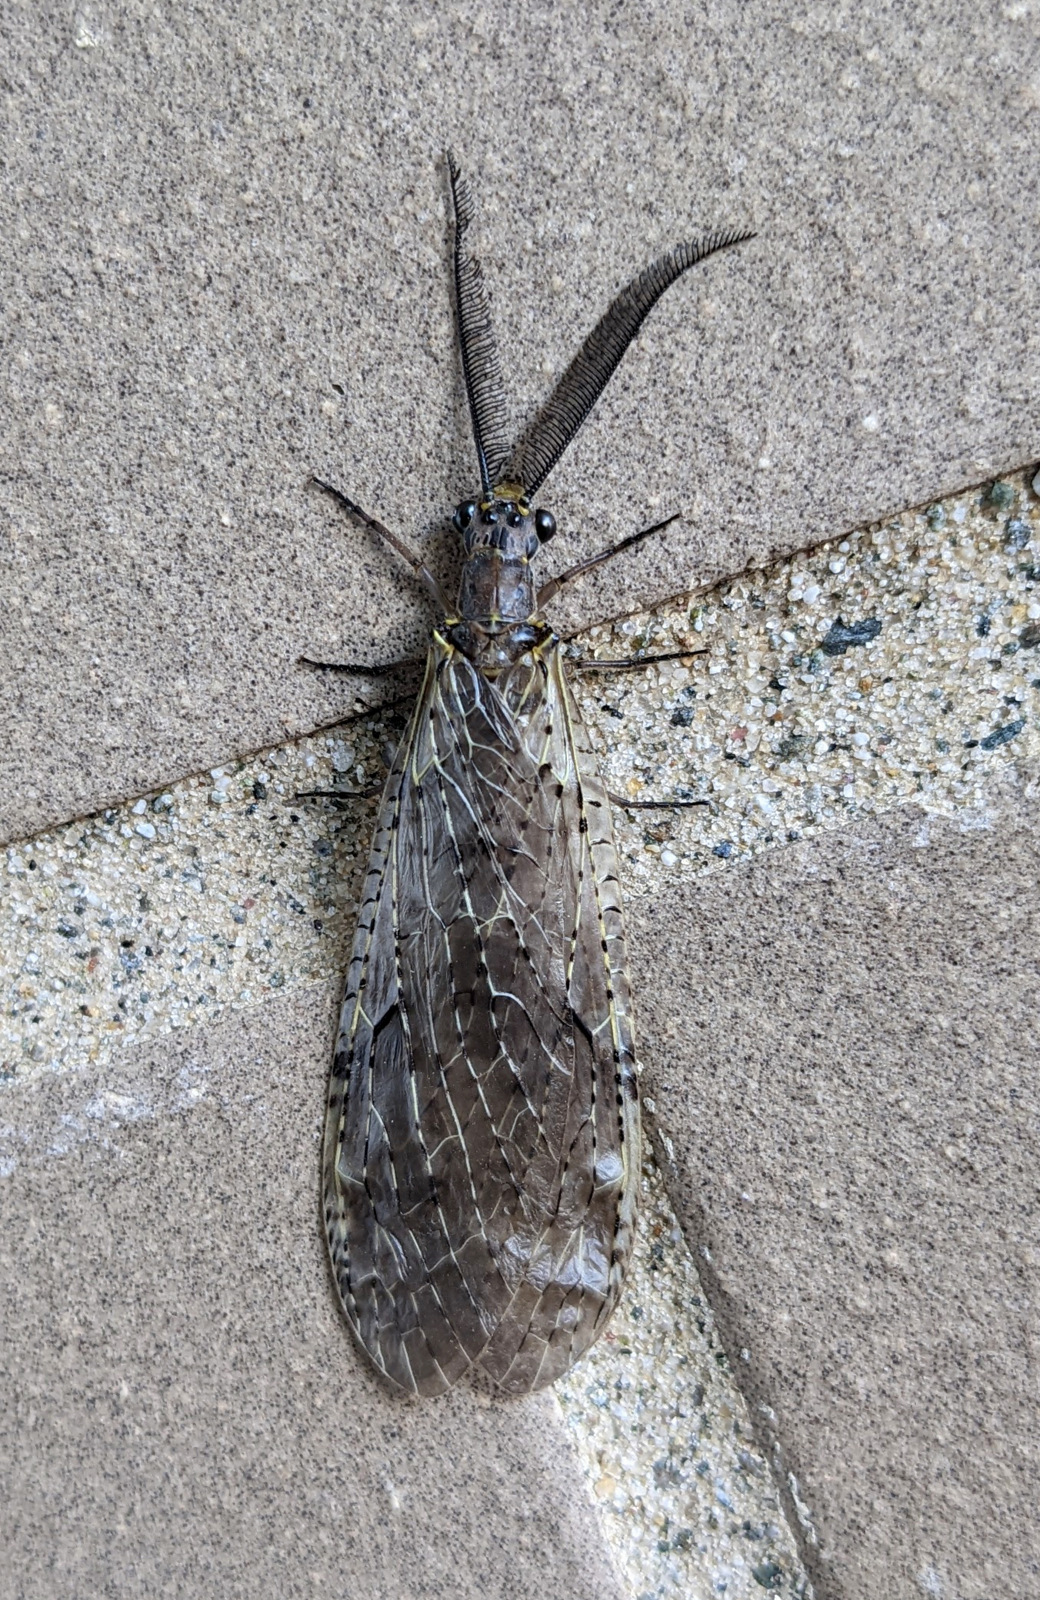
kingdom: Animalia
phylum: Arthropoda
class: Insecta
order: Megaloptera
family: Corydalidae
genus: Chauliodes
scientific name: Chauliodes rastricornis
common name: Spring fishfly
